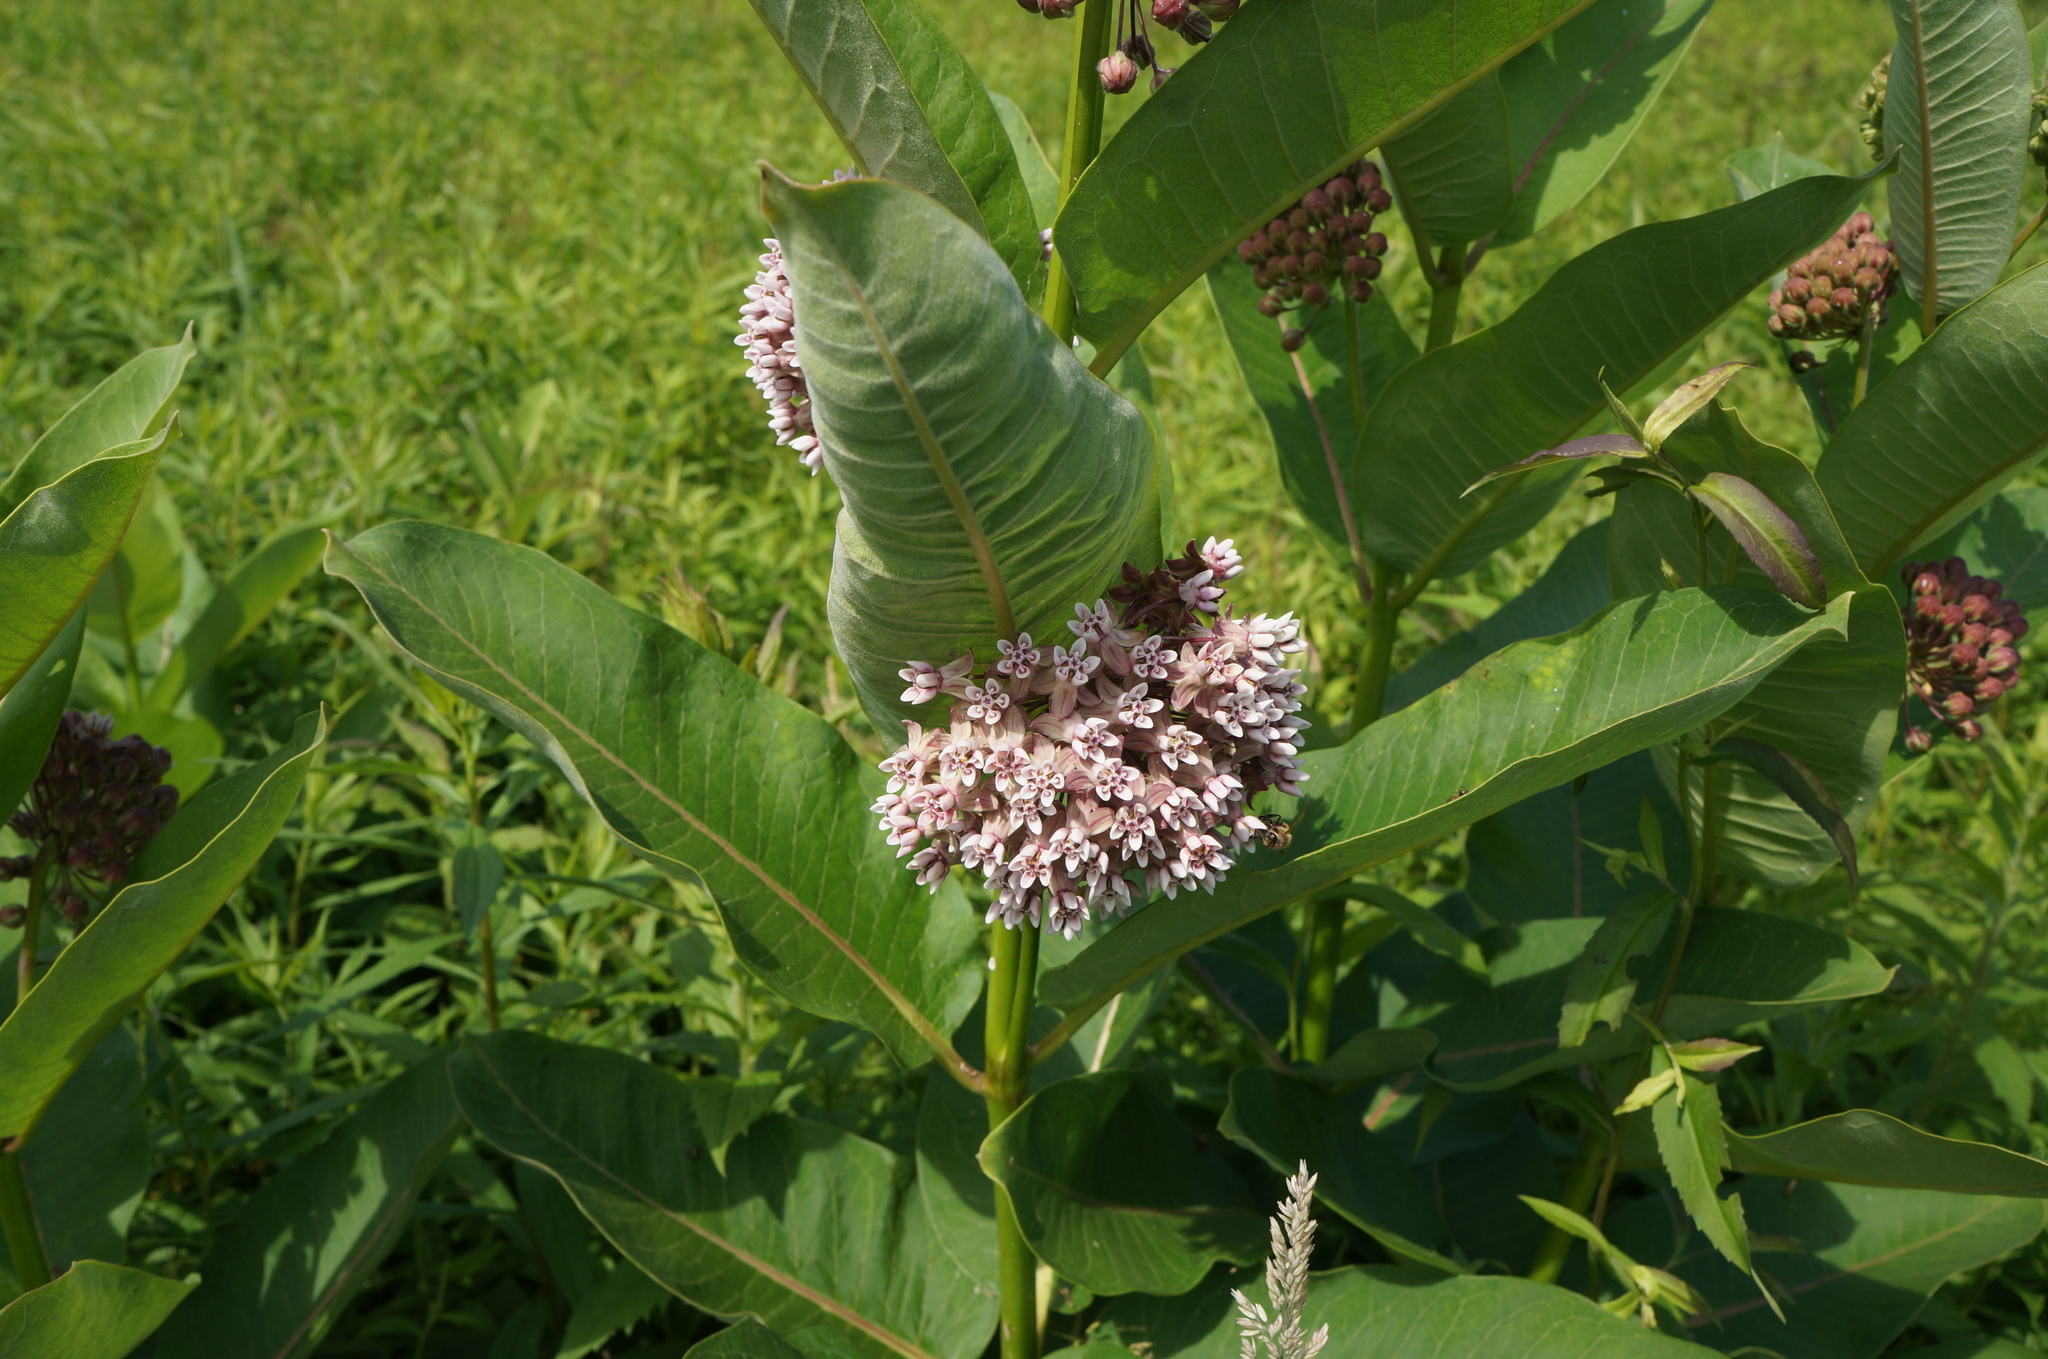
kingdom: Plantae
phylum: Tracheophyta
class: Magnoliopsida
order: Gentianales
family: Apocynaceae
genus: Asclepias
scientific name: Asclepias syriaca
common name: Common milkweed
